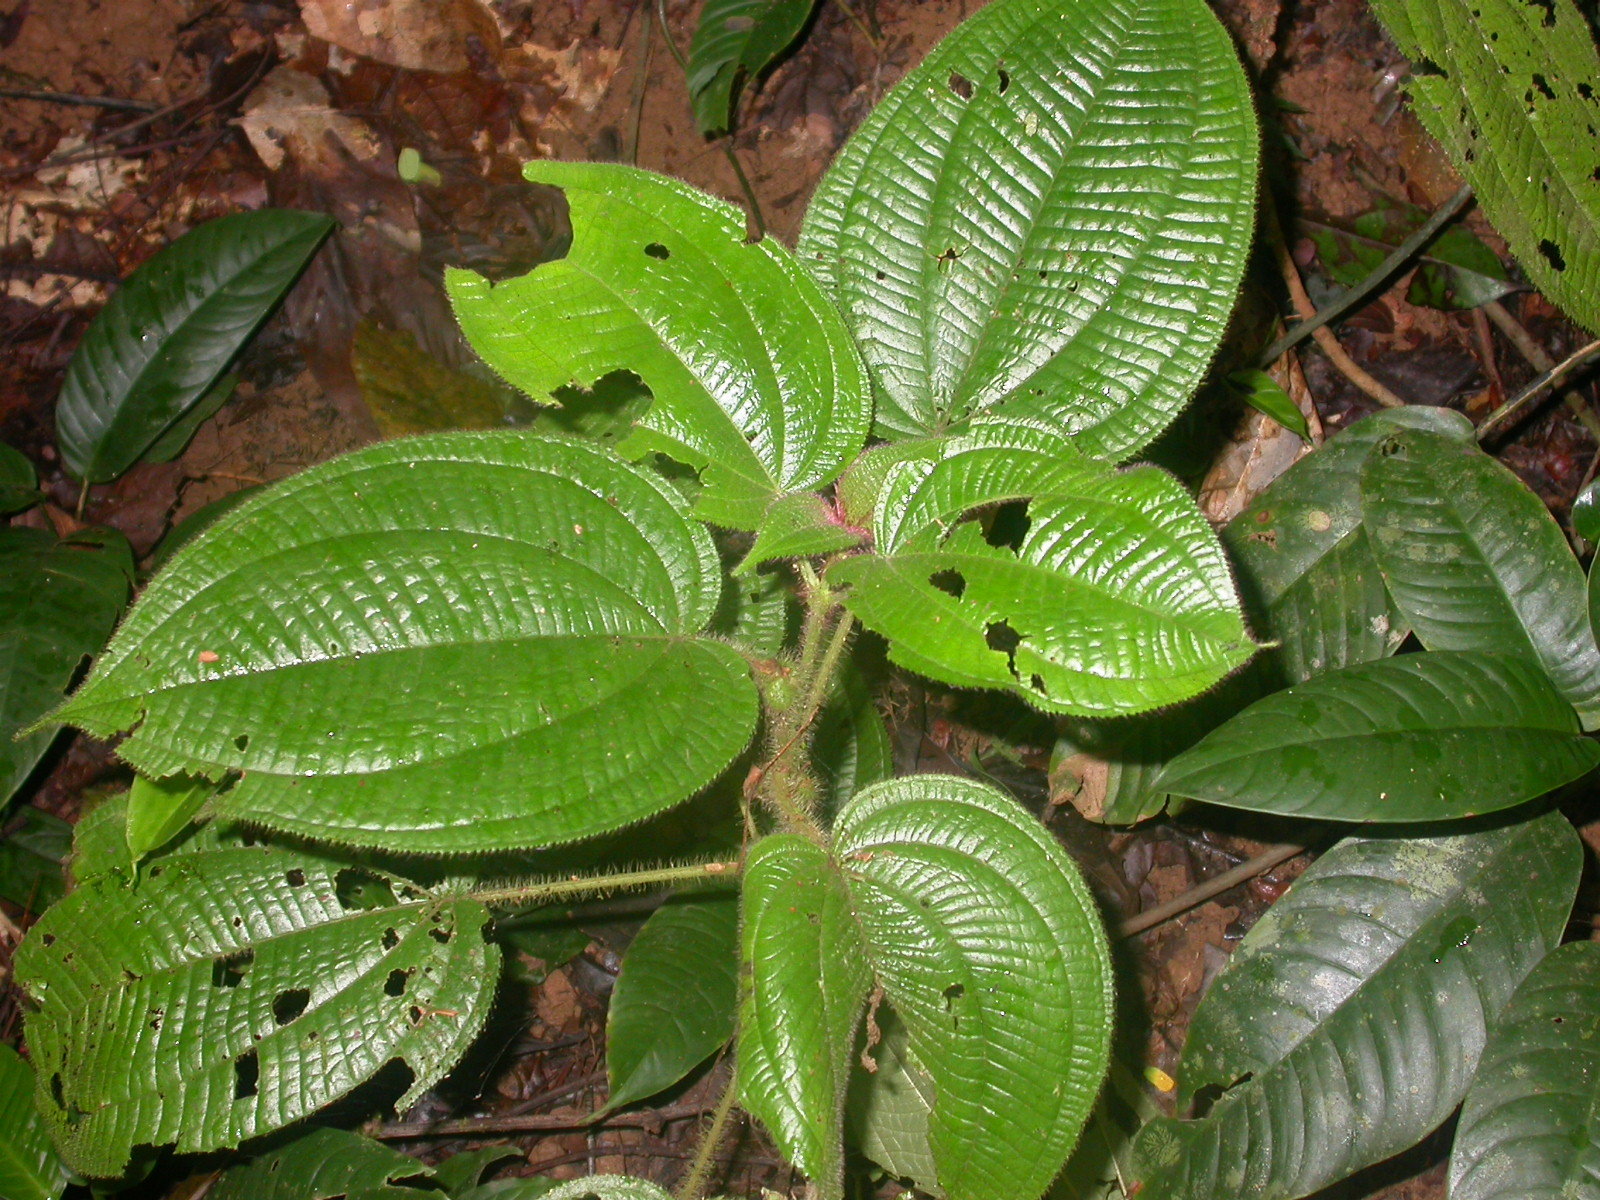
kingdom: Plantae
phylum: Tracheophyta
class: Magnoliopsida
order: Myrtales
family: Melastomataceae
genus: Miconia
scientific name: Miconia crenulata
